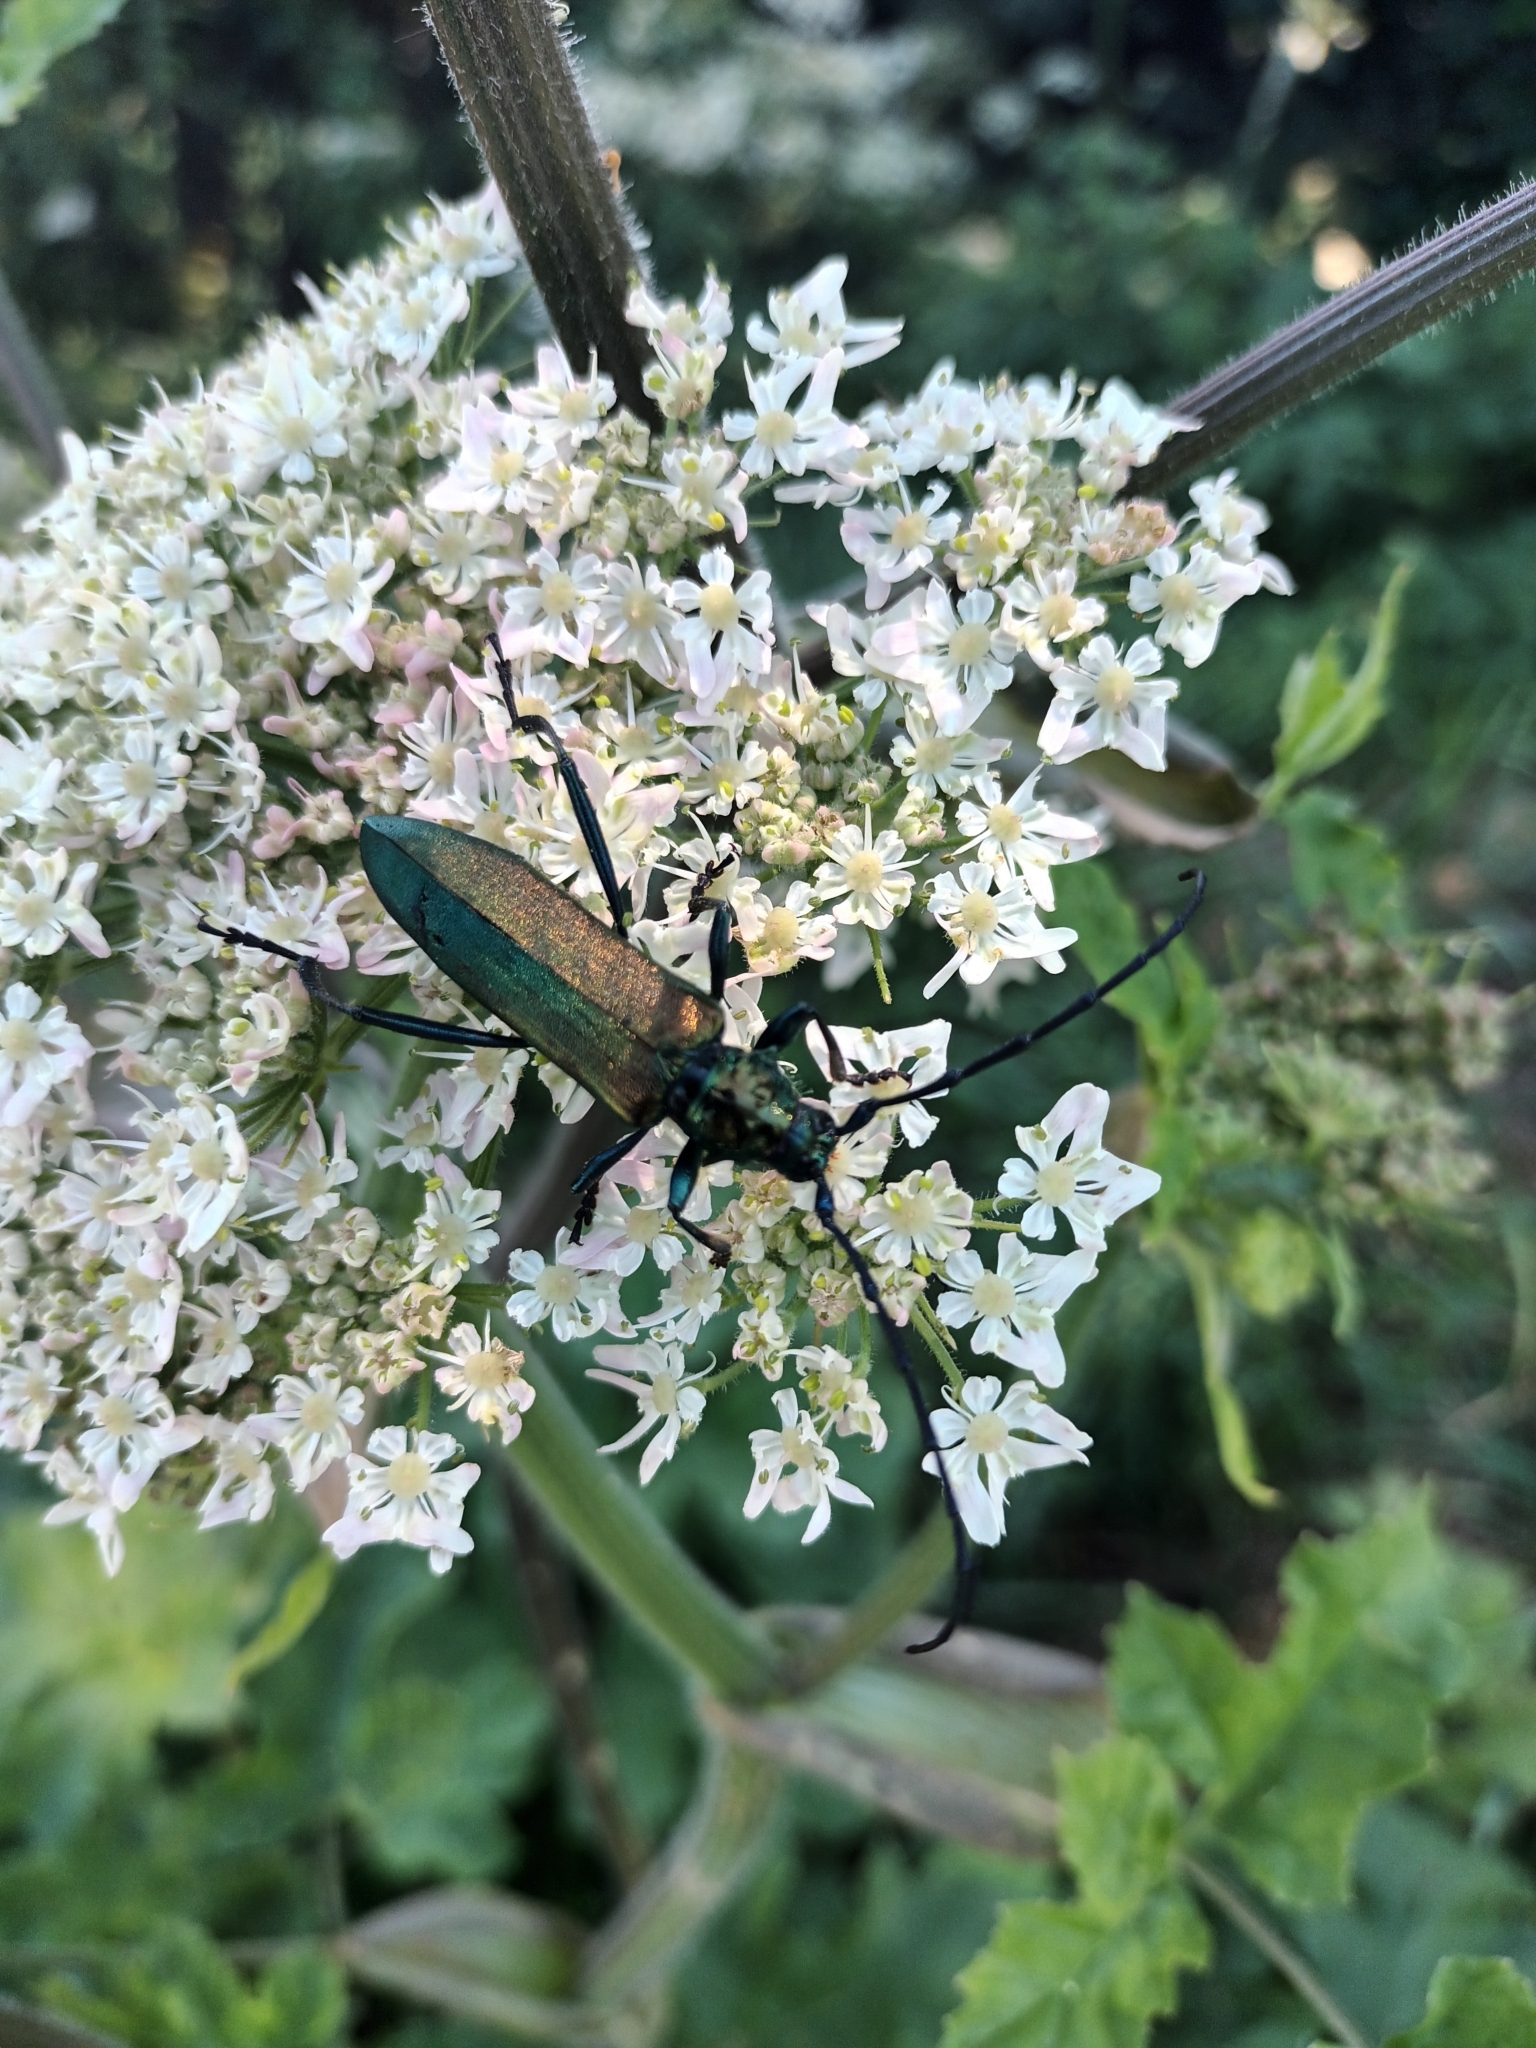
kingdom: Animalia
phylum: Arthropoda
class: Insecta
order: Coleoptera
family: Cerambycidae
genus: Aromia
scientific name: Aromia moschata
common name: Musk beetle
